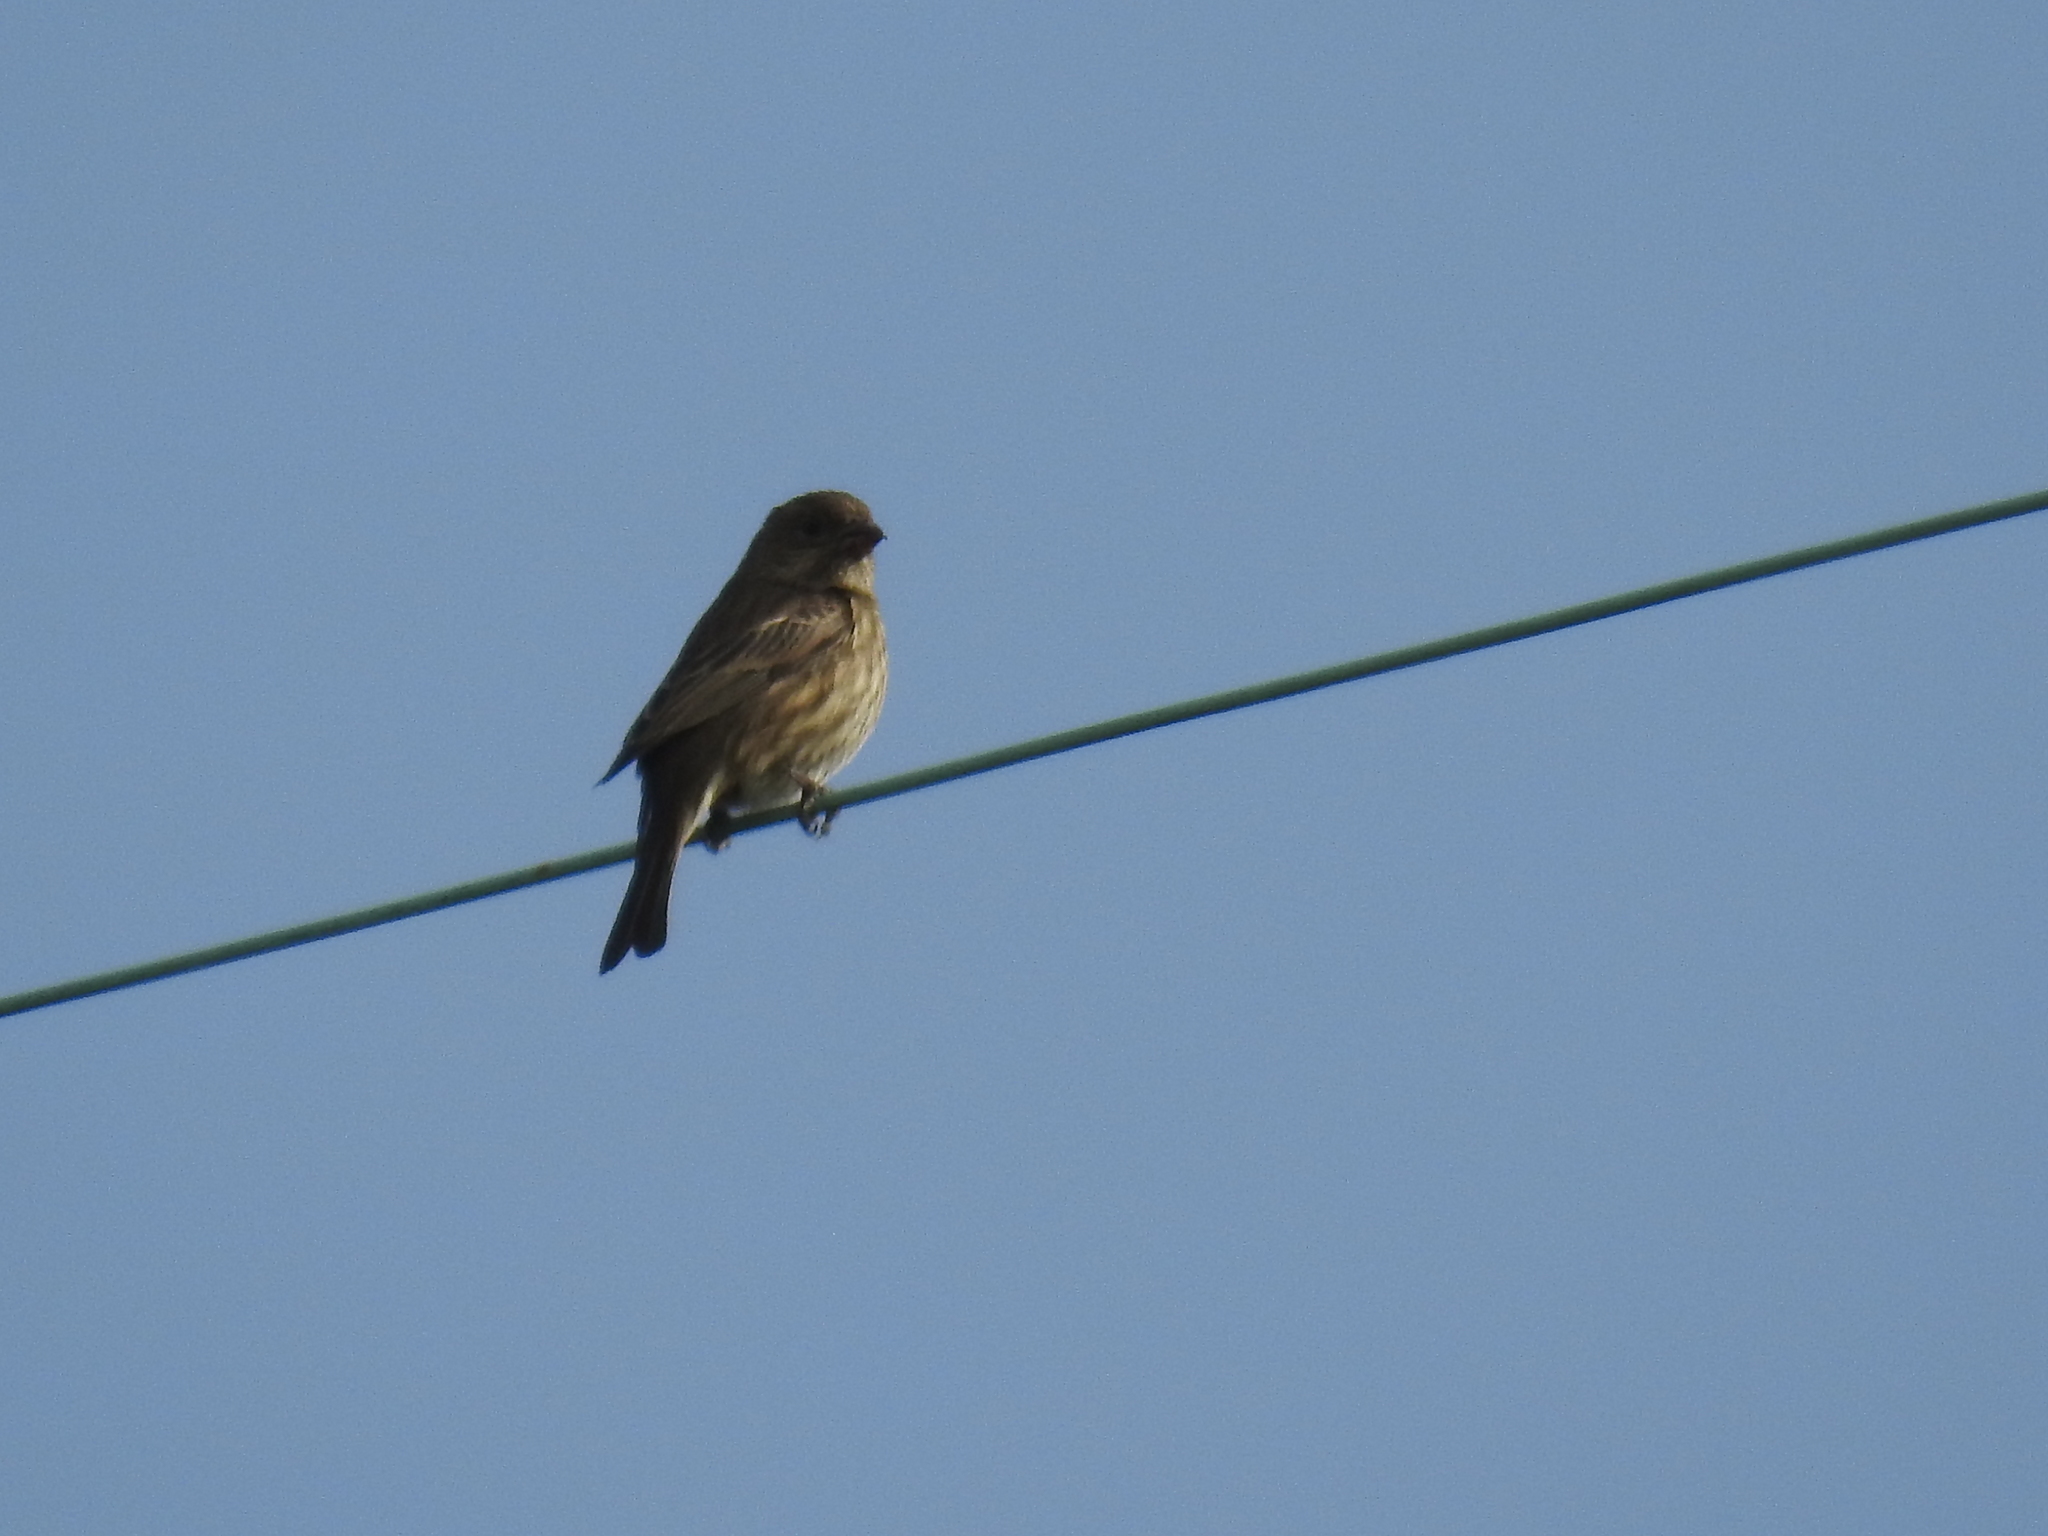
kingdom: Animalia
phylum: Chordata
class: Aves
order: Passeriformes
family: Fringillidae
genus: Haemorhous
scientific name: Haemorhous mexicanus
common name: House finch
